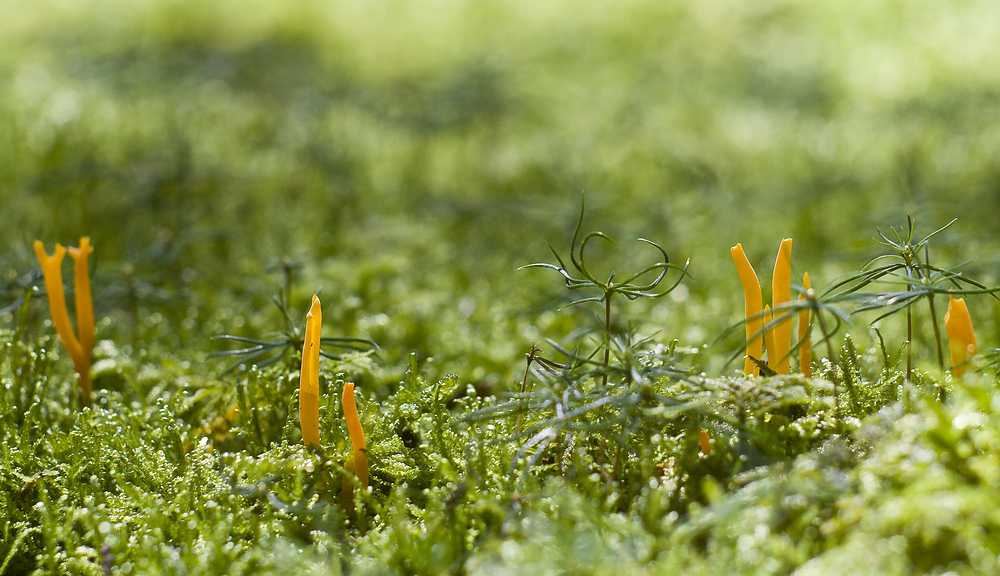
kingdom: Fungi
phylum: Basidiomycota
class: Dacrymycetes
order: Dacrymycetales
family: Dacrymycetaceae
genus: Calocera
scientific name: Calocera viscosa
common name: Yellow stagshorn
